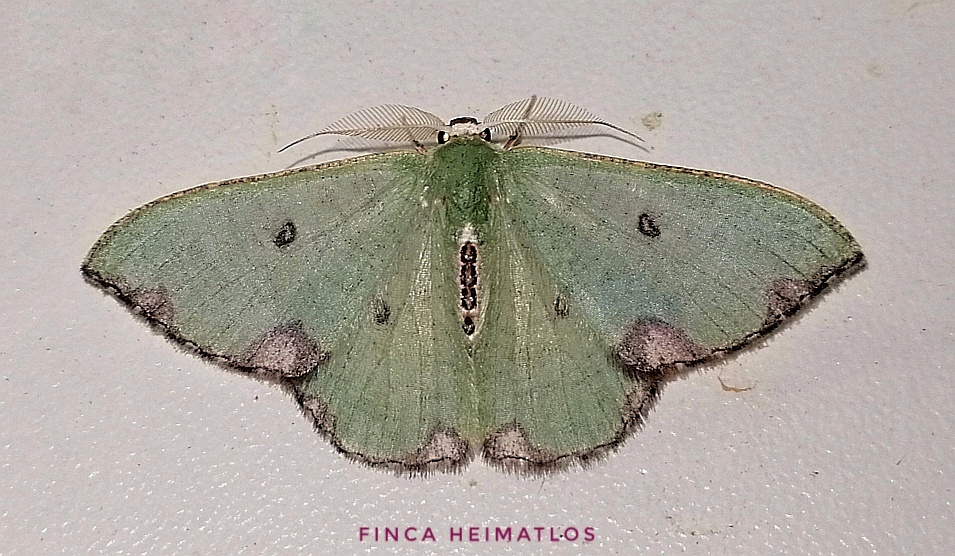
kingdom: Animalia
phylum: Arthropoda
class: Insecta
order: Lepidoptera
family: Geometridae
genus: Oospila
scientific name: Oospila tricamerata
